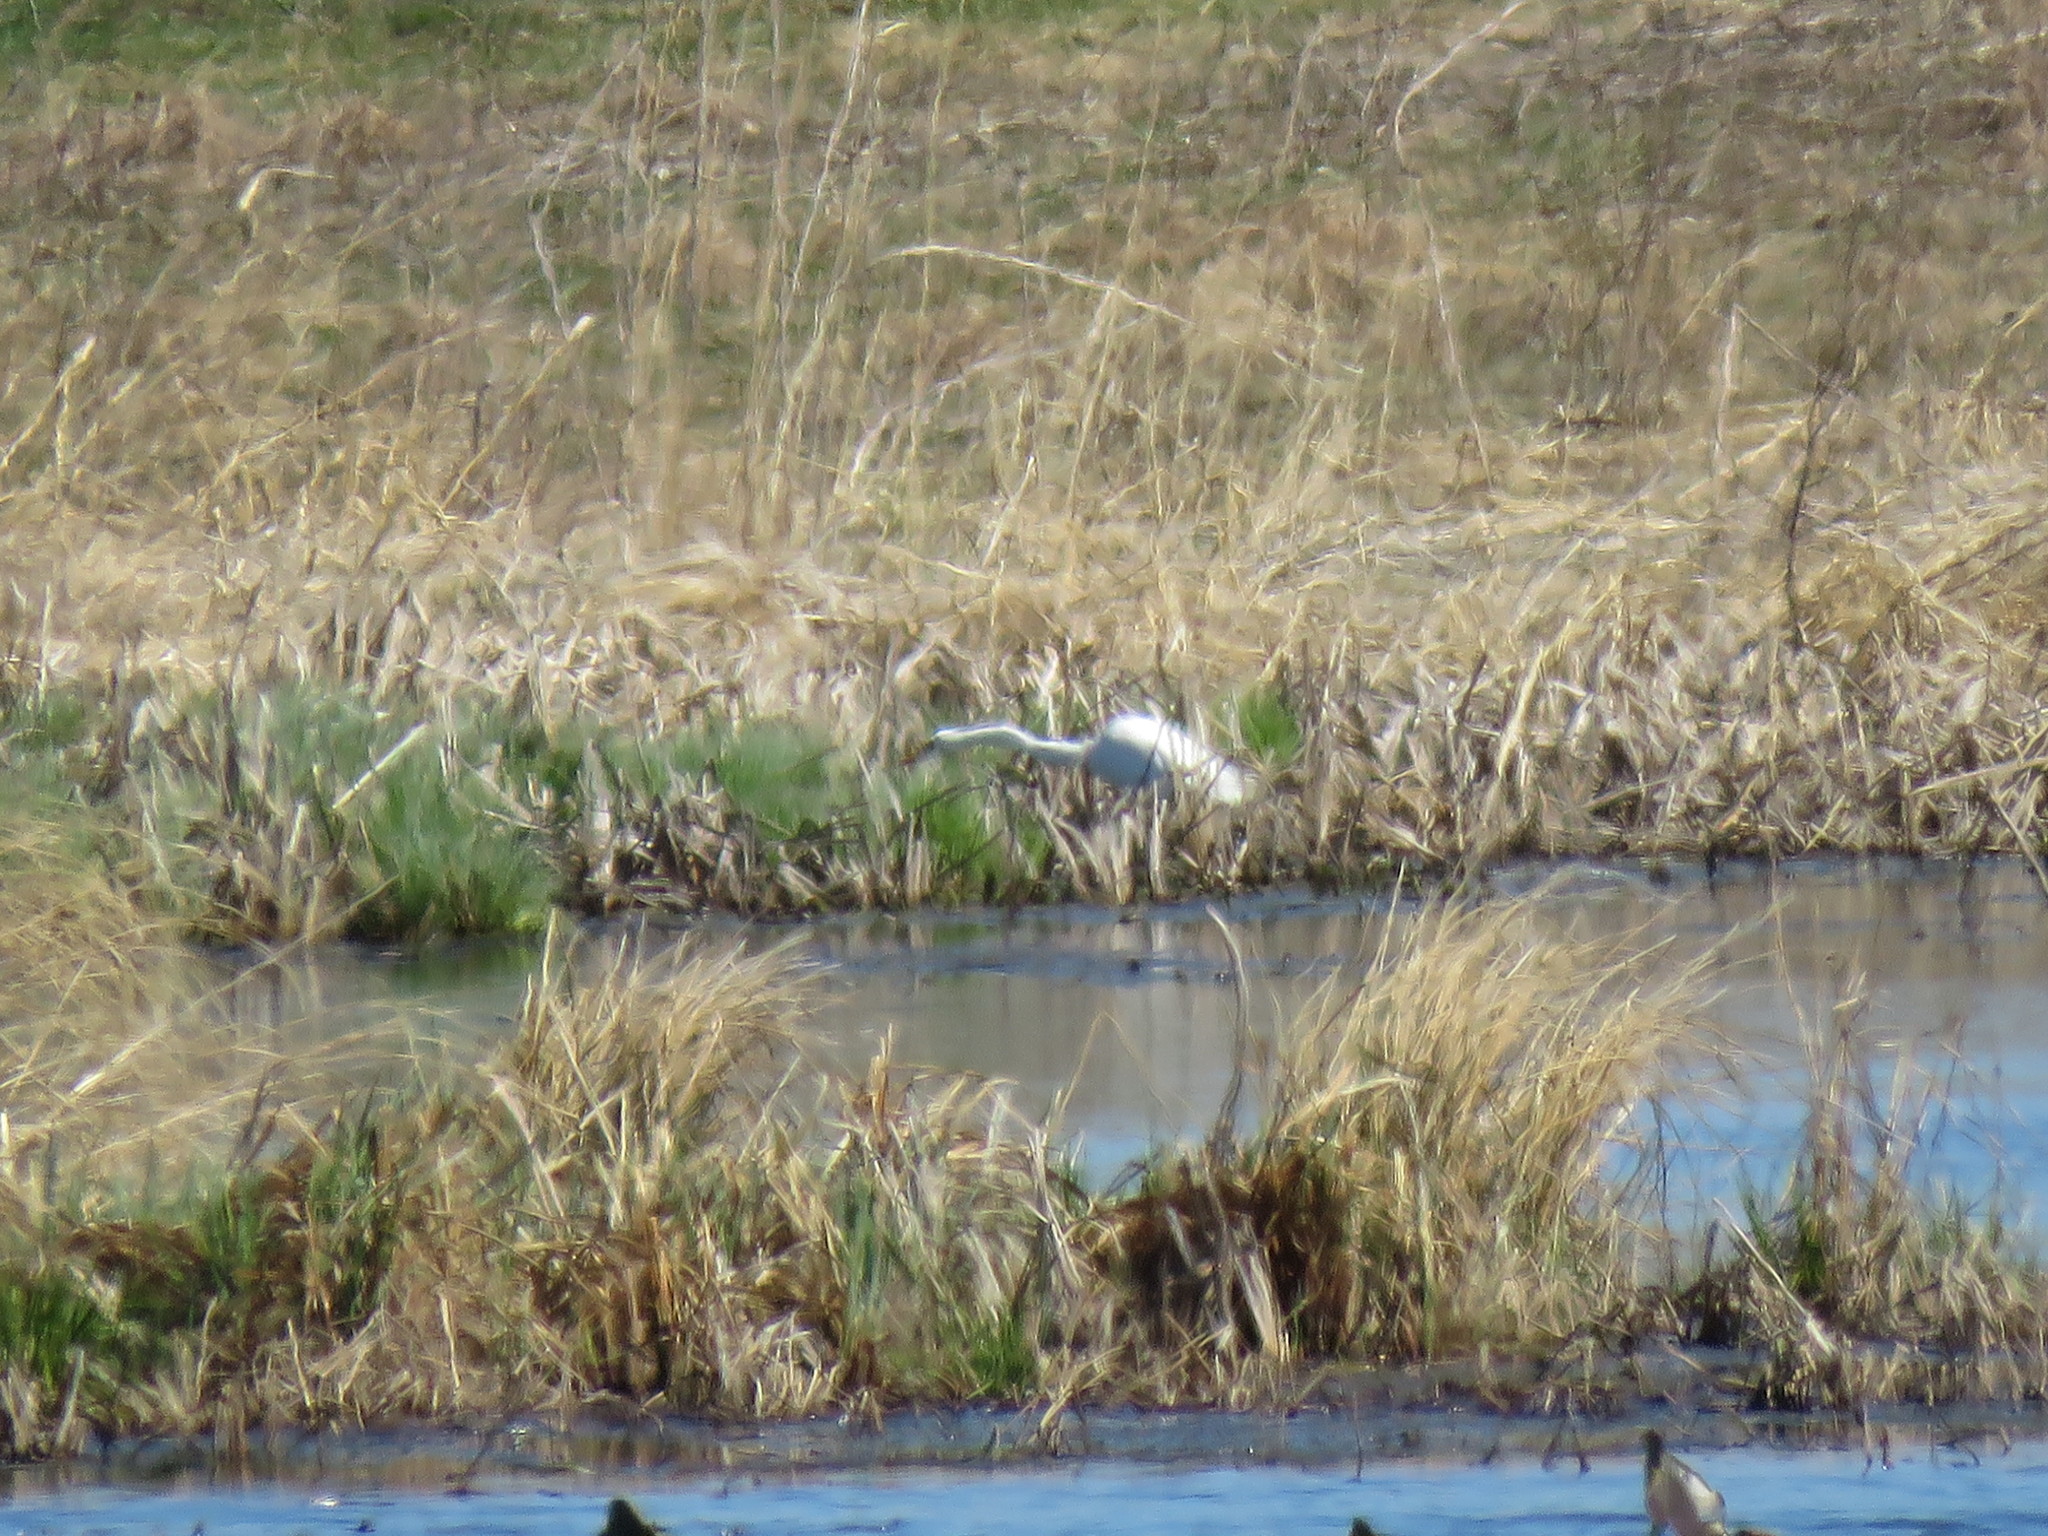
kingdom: Animalia
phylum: Chordata
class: Aves
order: Pelecaniformes
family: Ardeidae
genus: Ardea
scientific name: Ardea alba
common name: Great egret
